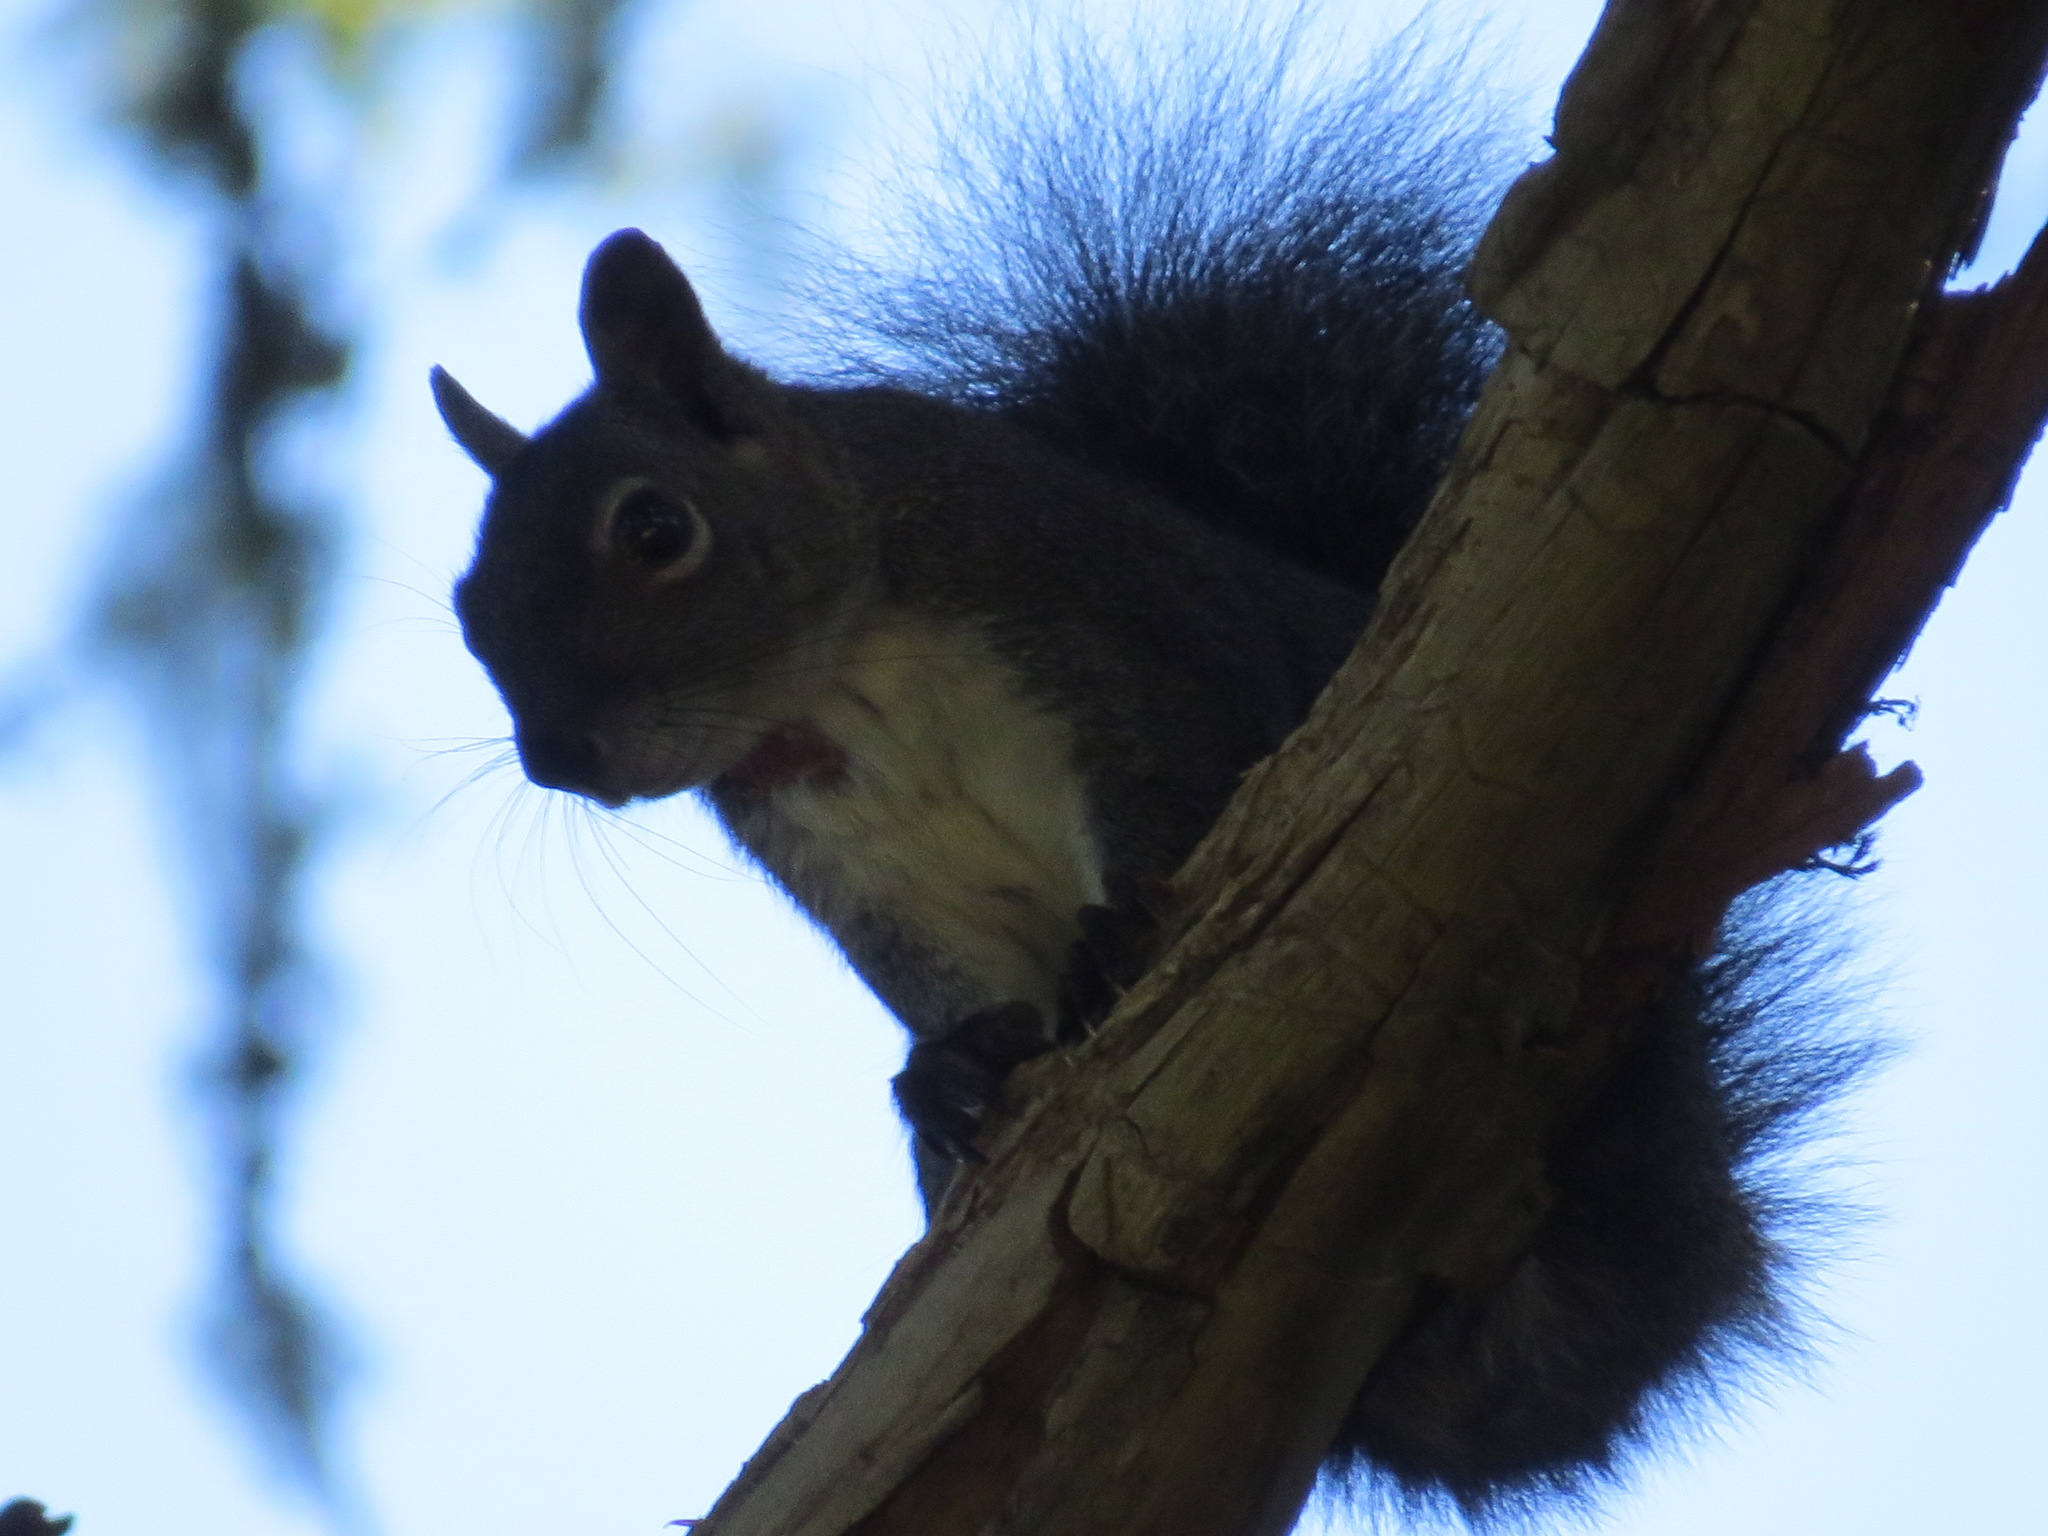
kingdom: Animalia
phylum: Chordata
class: Mammalia
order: Rodentia
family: Sciuridae
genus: Sciurus
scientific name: Sciurus griseus
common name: Western gray squirrel
